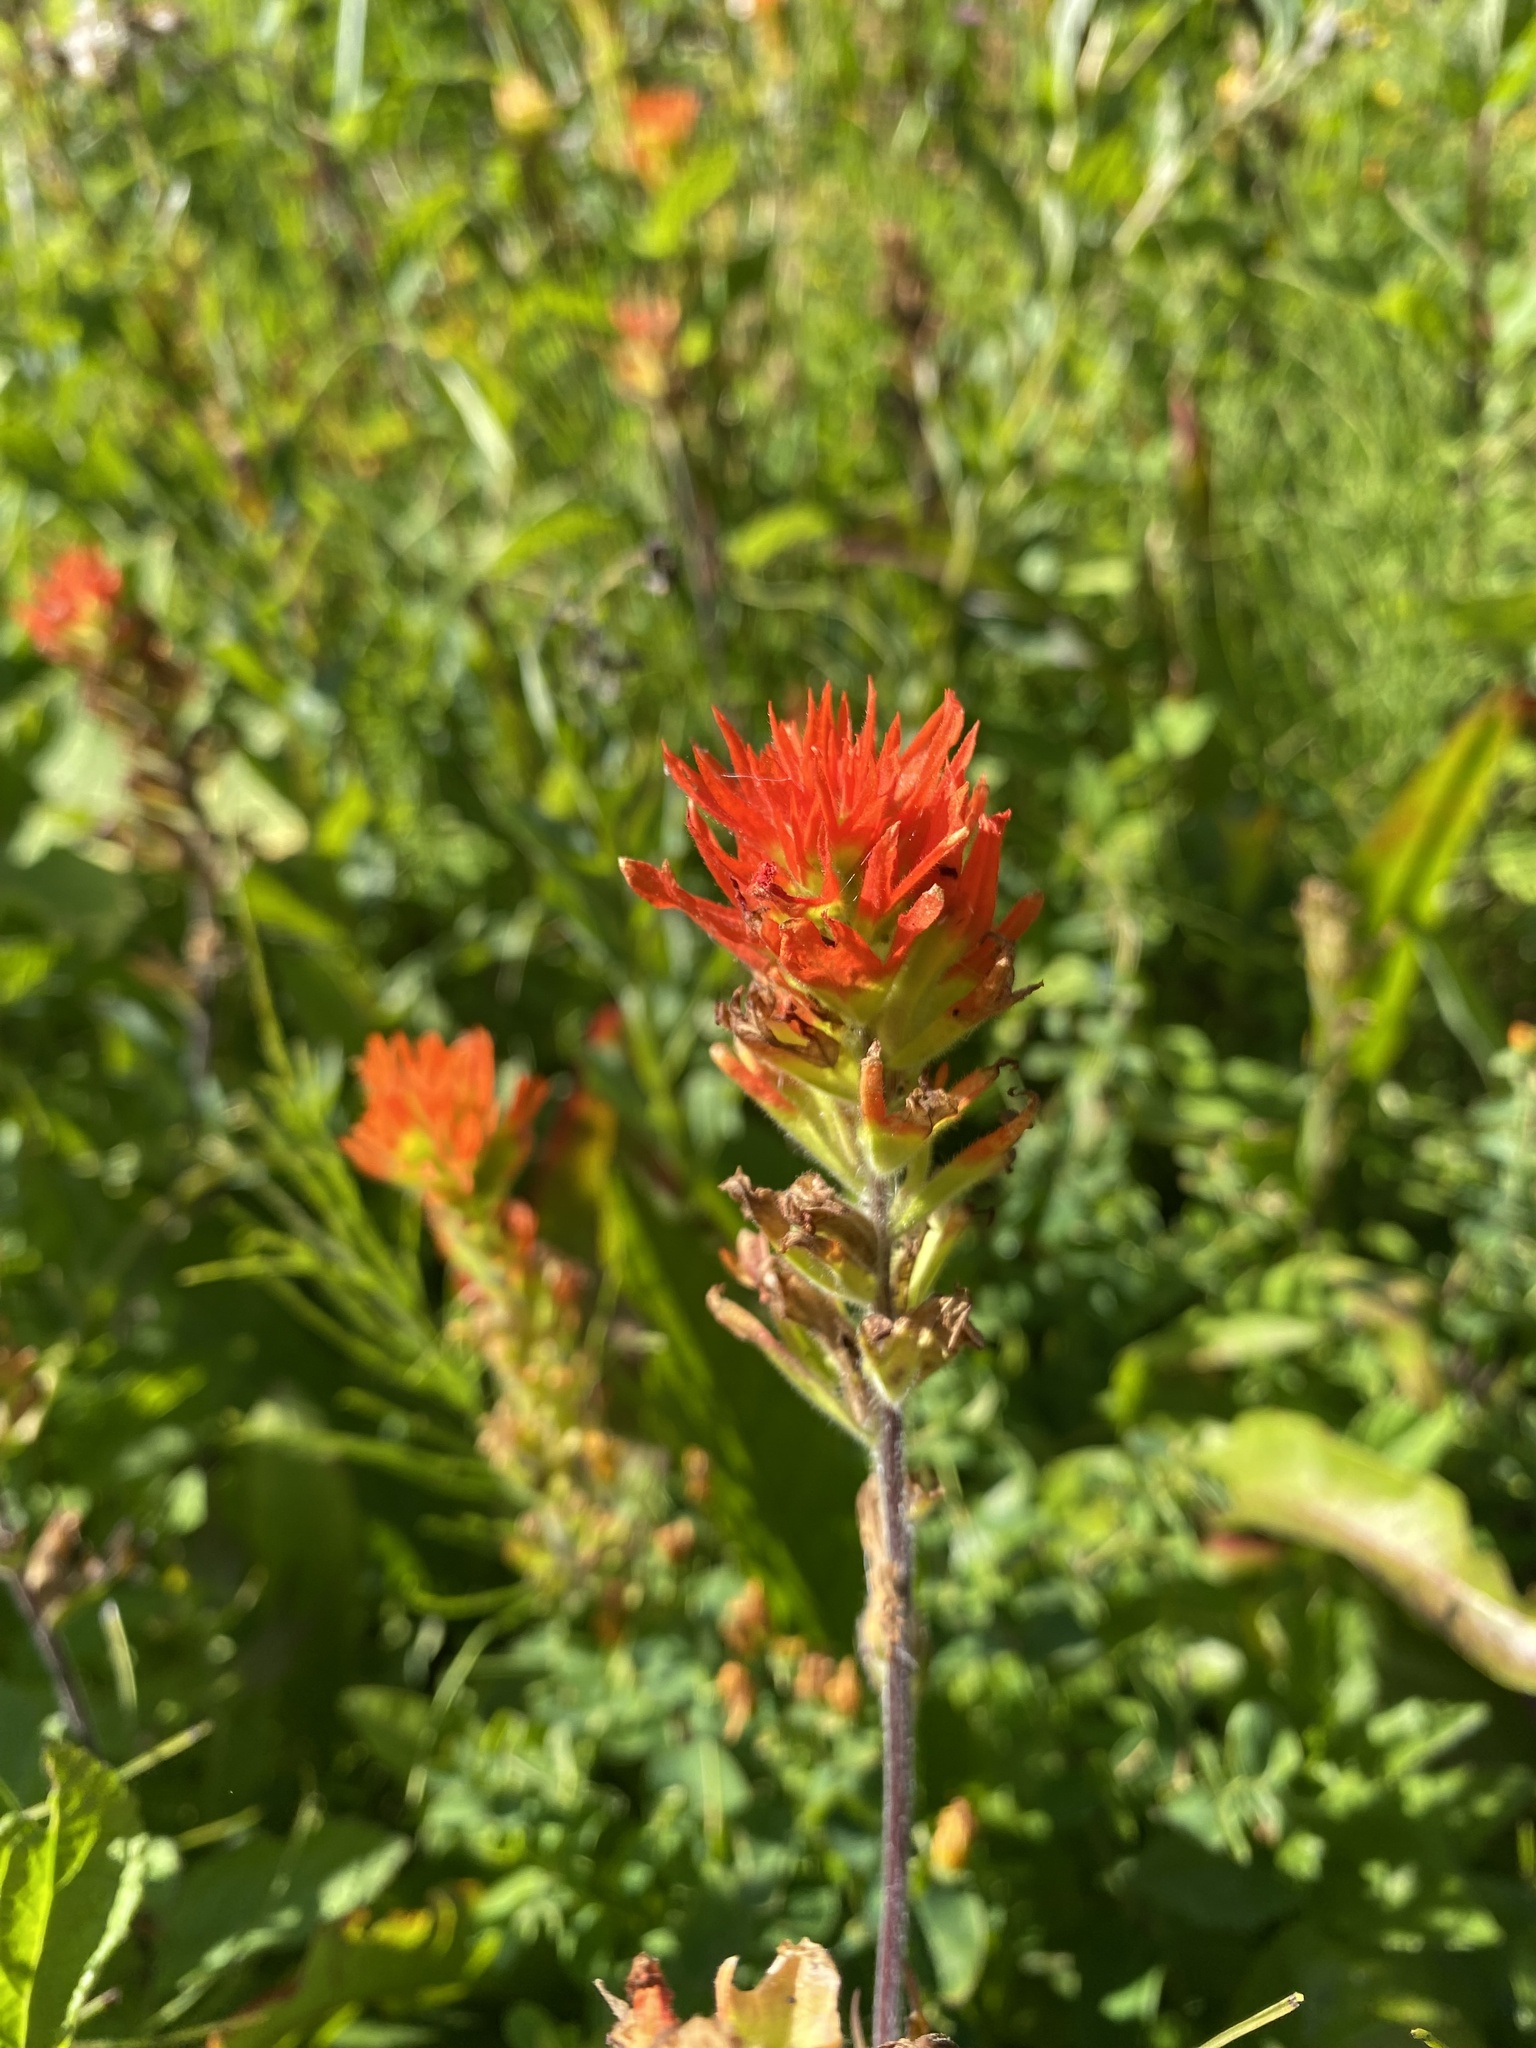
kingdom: Plantae
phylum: Tracheophyta
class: Magnoliopsida
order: Lamiales
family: Orobanchaceae
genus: Castilleja
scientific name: Castilleja suksdorfii
